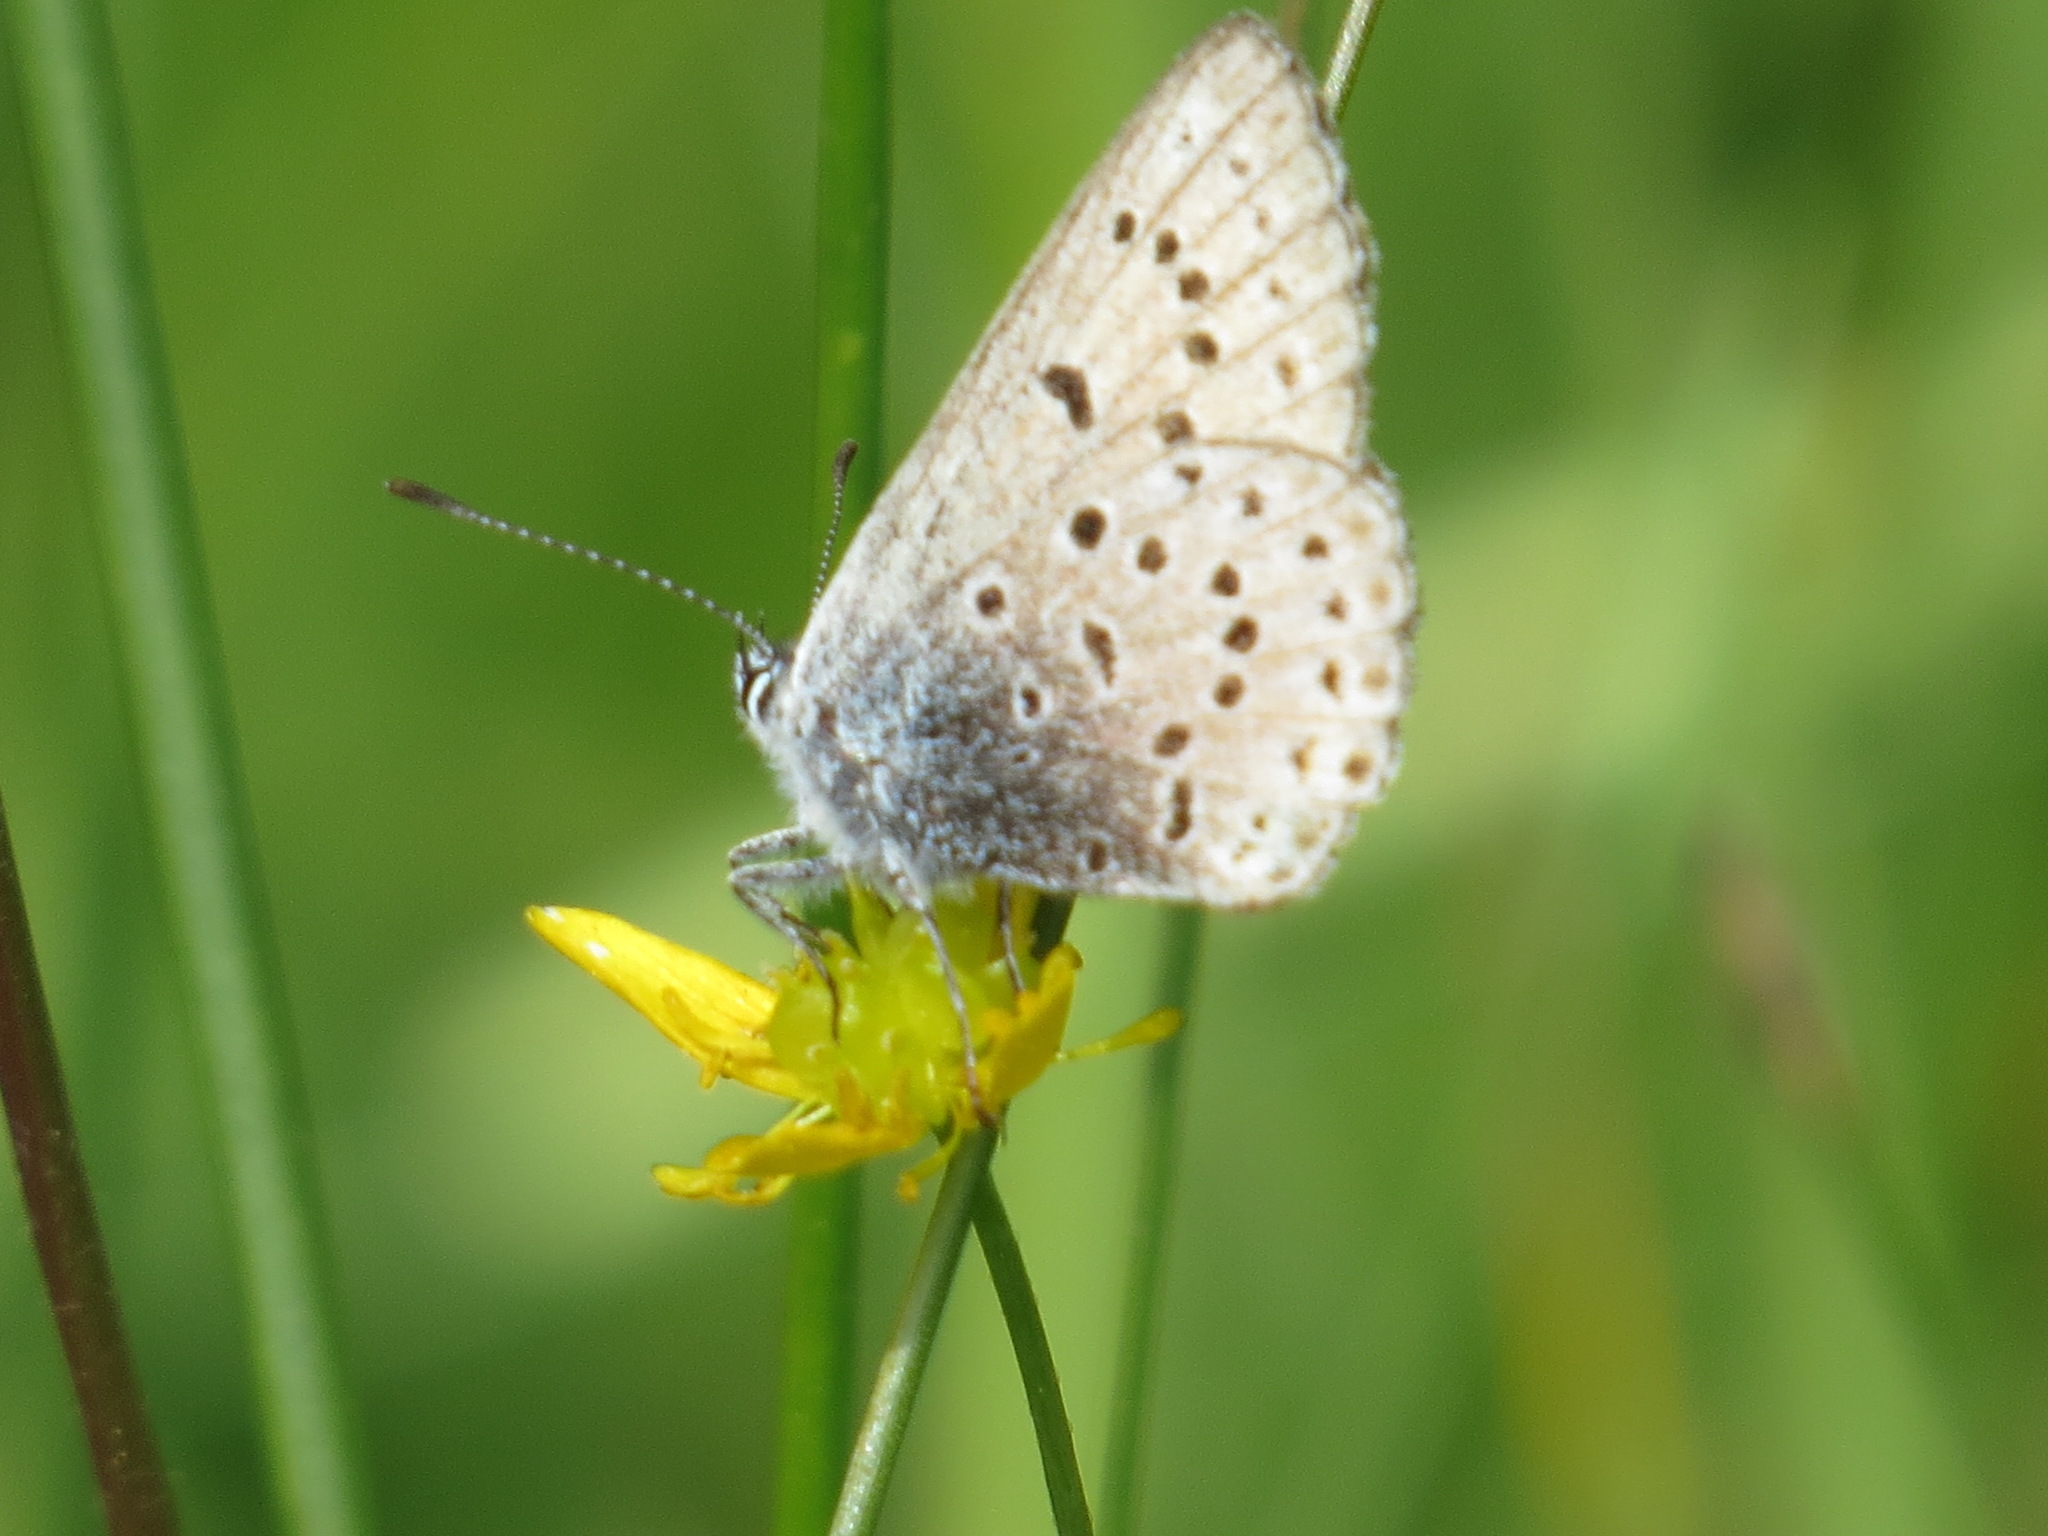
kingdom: Animalia
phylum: Arthropoda
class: Insecta
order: Lepidoptera
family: Lycaenidae
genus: Icaricia
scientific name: Icaricia saepiolus
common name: Greenish blue
